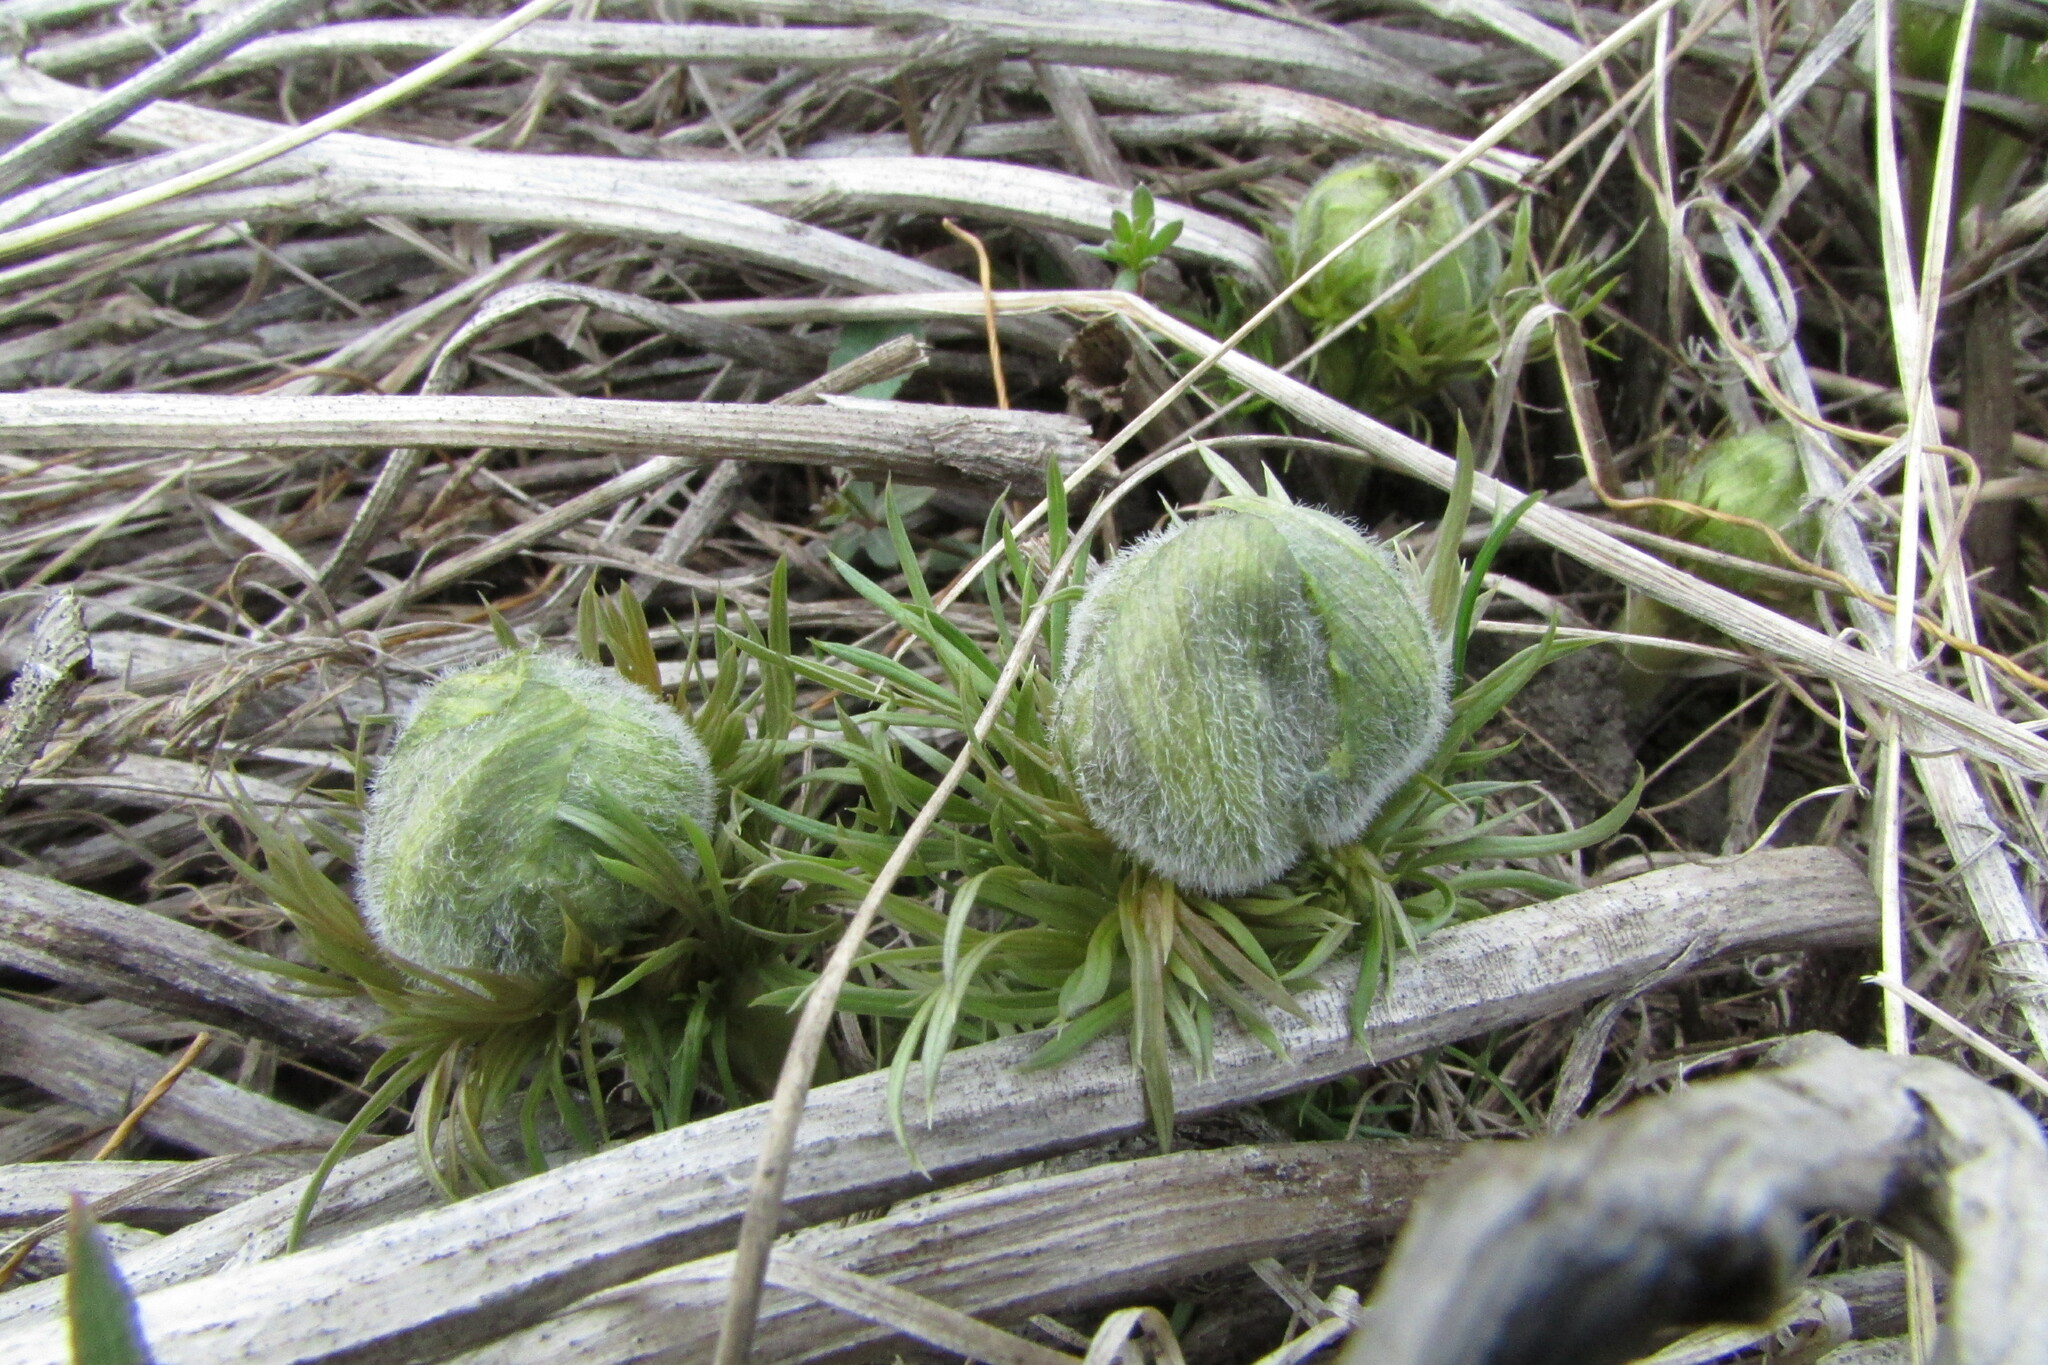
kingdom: Plantae
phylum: Tracheophyta
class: Magnoliopsida
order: Ranunculales
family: Ranunculaceae
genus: Adonis
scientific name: Adonis vernalis
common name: Yellow pheasants-eye
